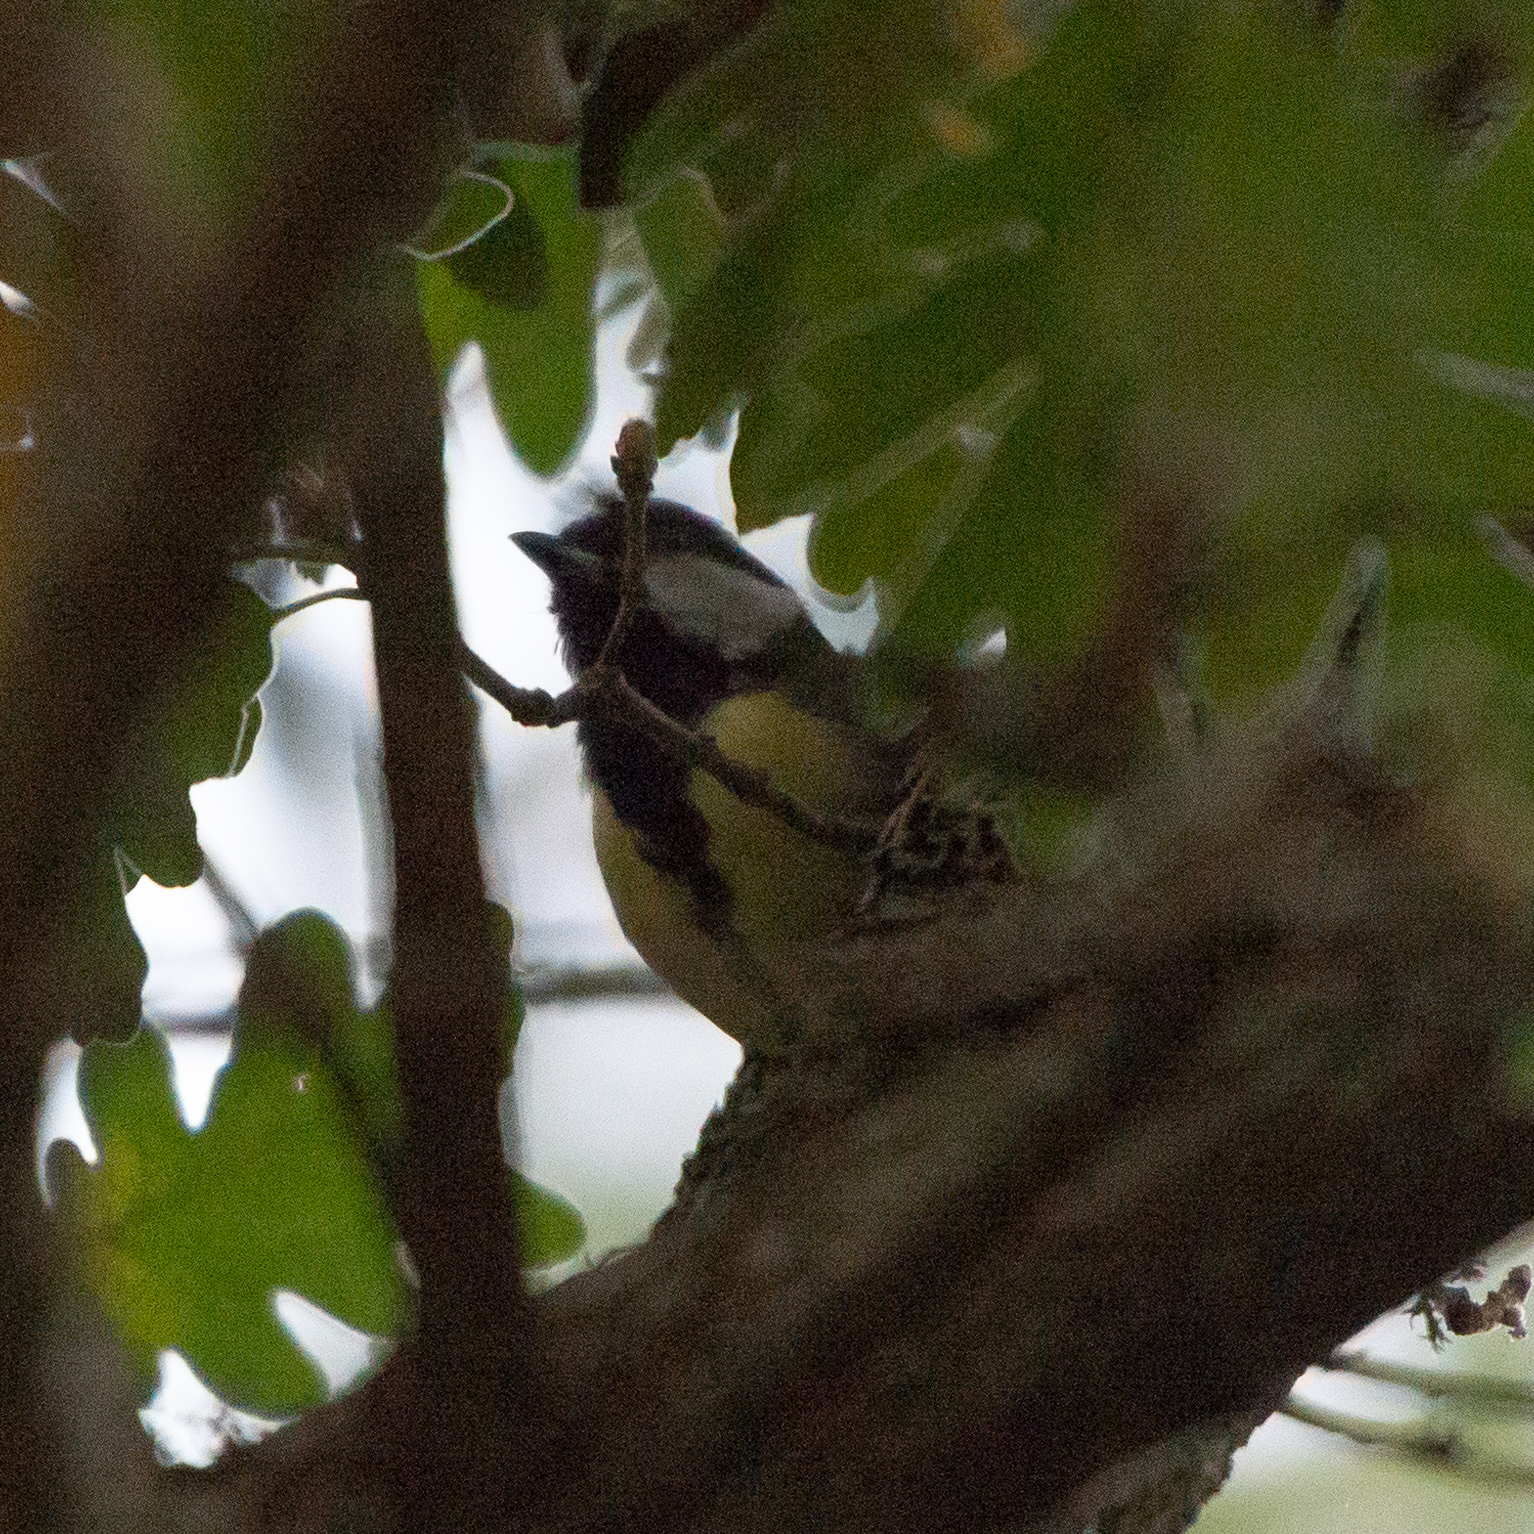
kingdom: Animalia
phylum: Chordata
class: Aves
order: Passeriformes
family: Paridae
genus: Parus
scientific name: Parus major
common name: Great tit
